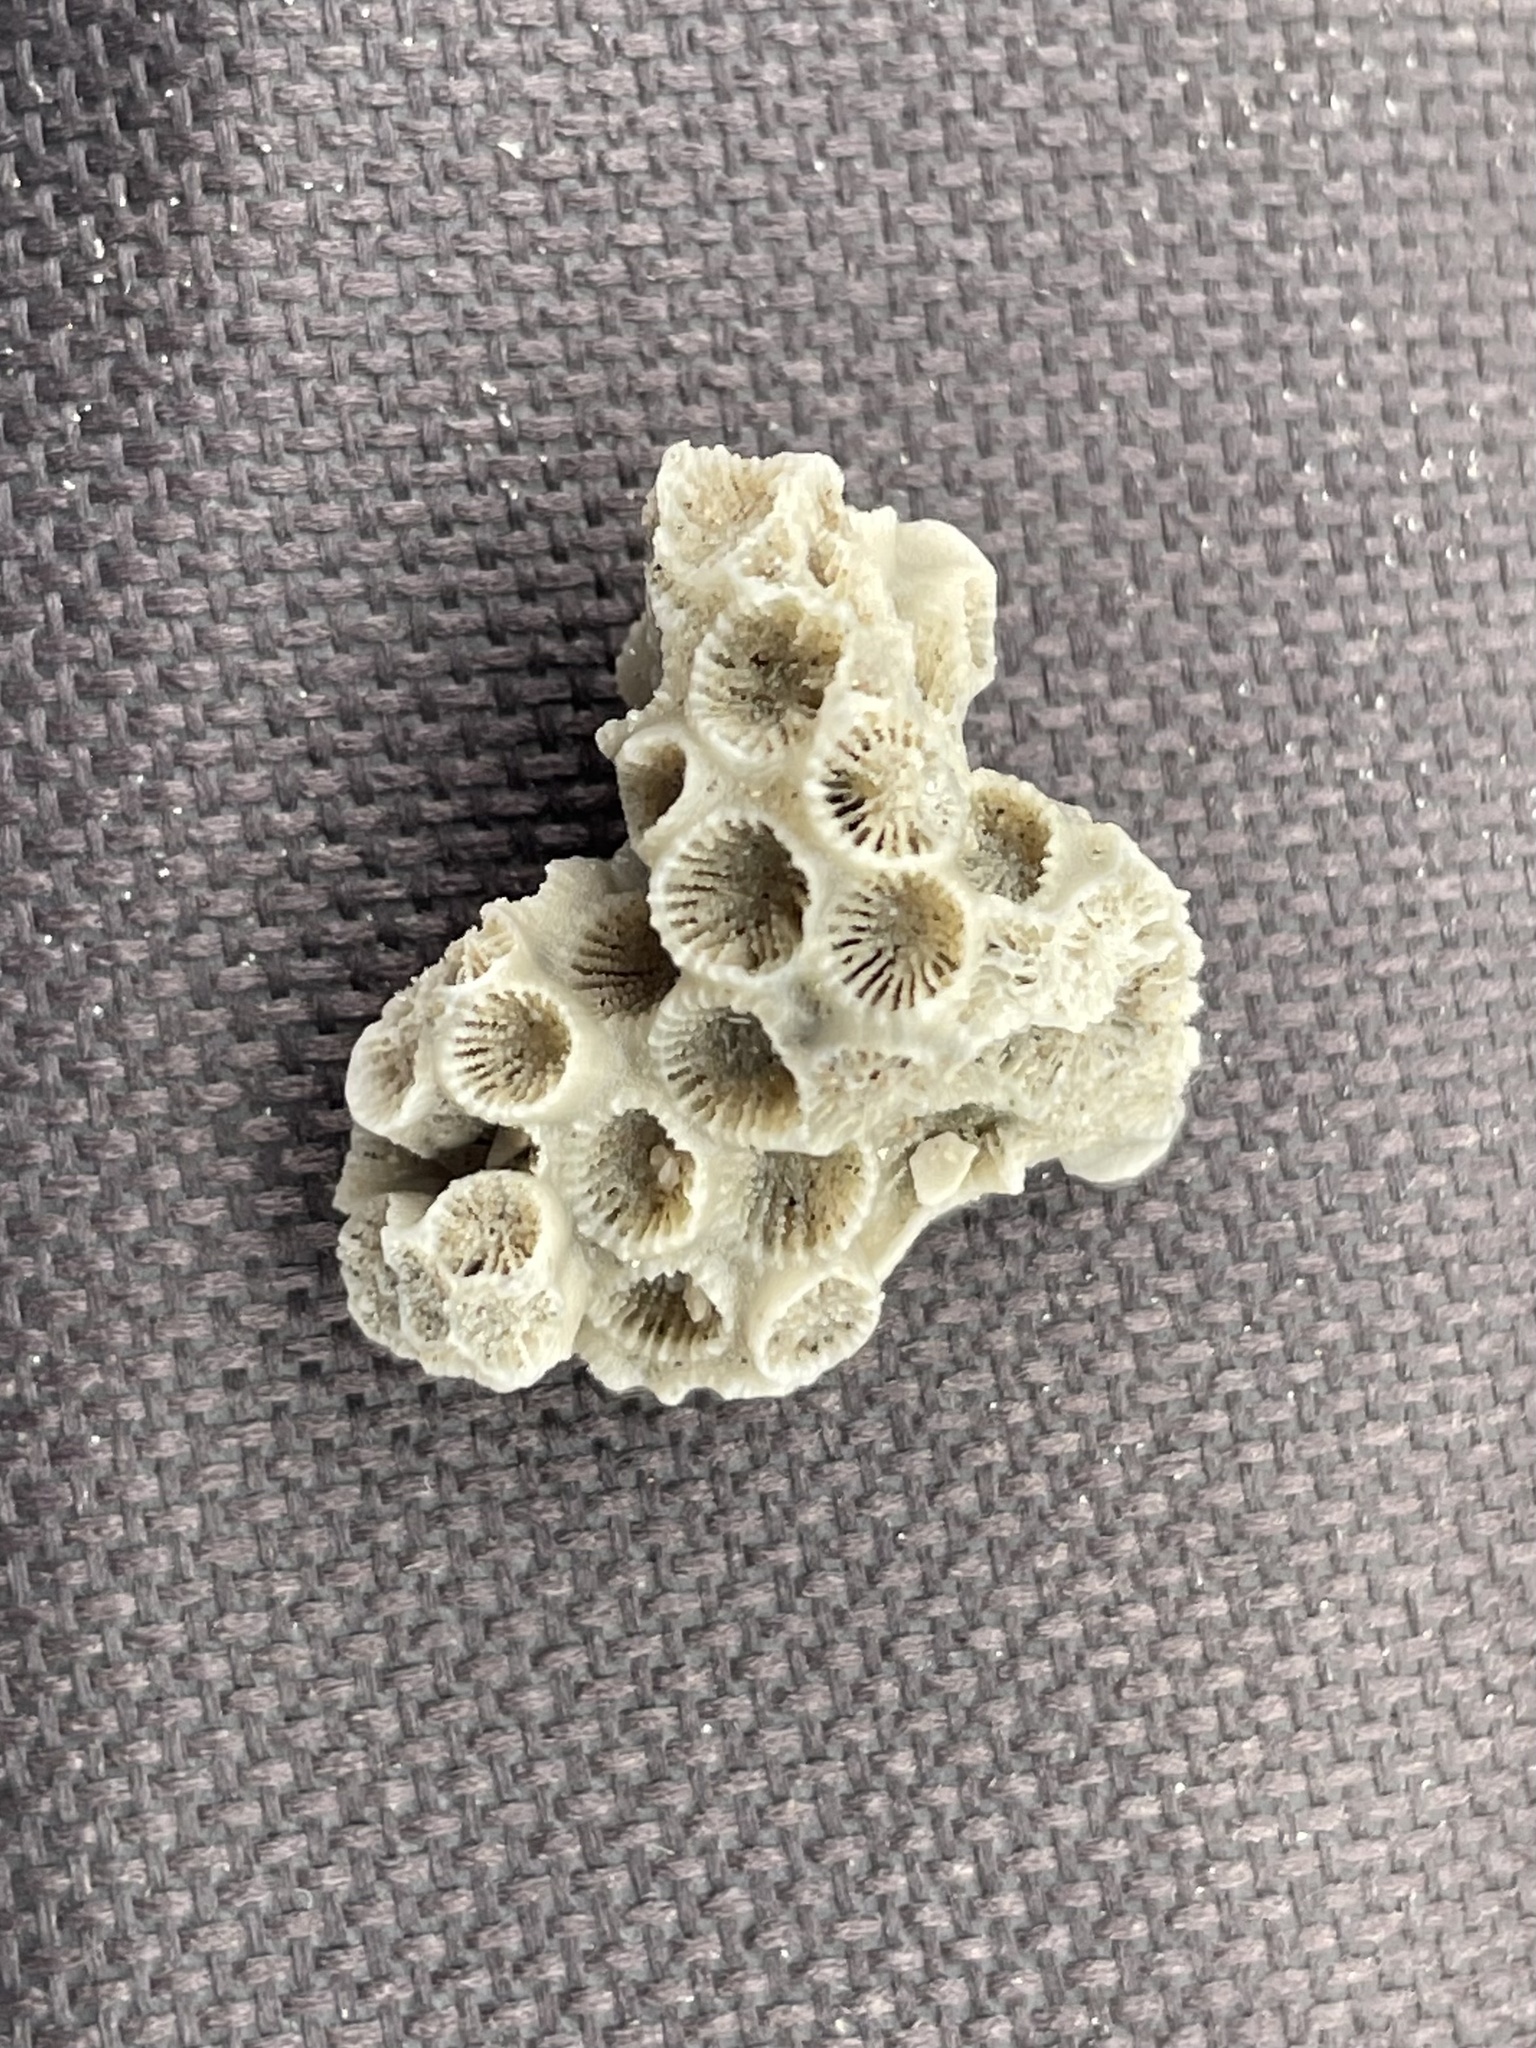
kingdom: Animalia
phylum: Cnidaria
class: Anthozoa
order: Scleractinia
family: Astrangiidae
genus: Astrangia
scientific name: Astrangia poculata
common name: Northern star coral
